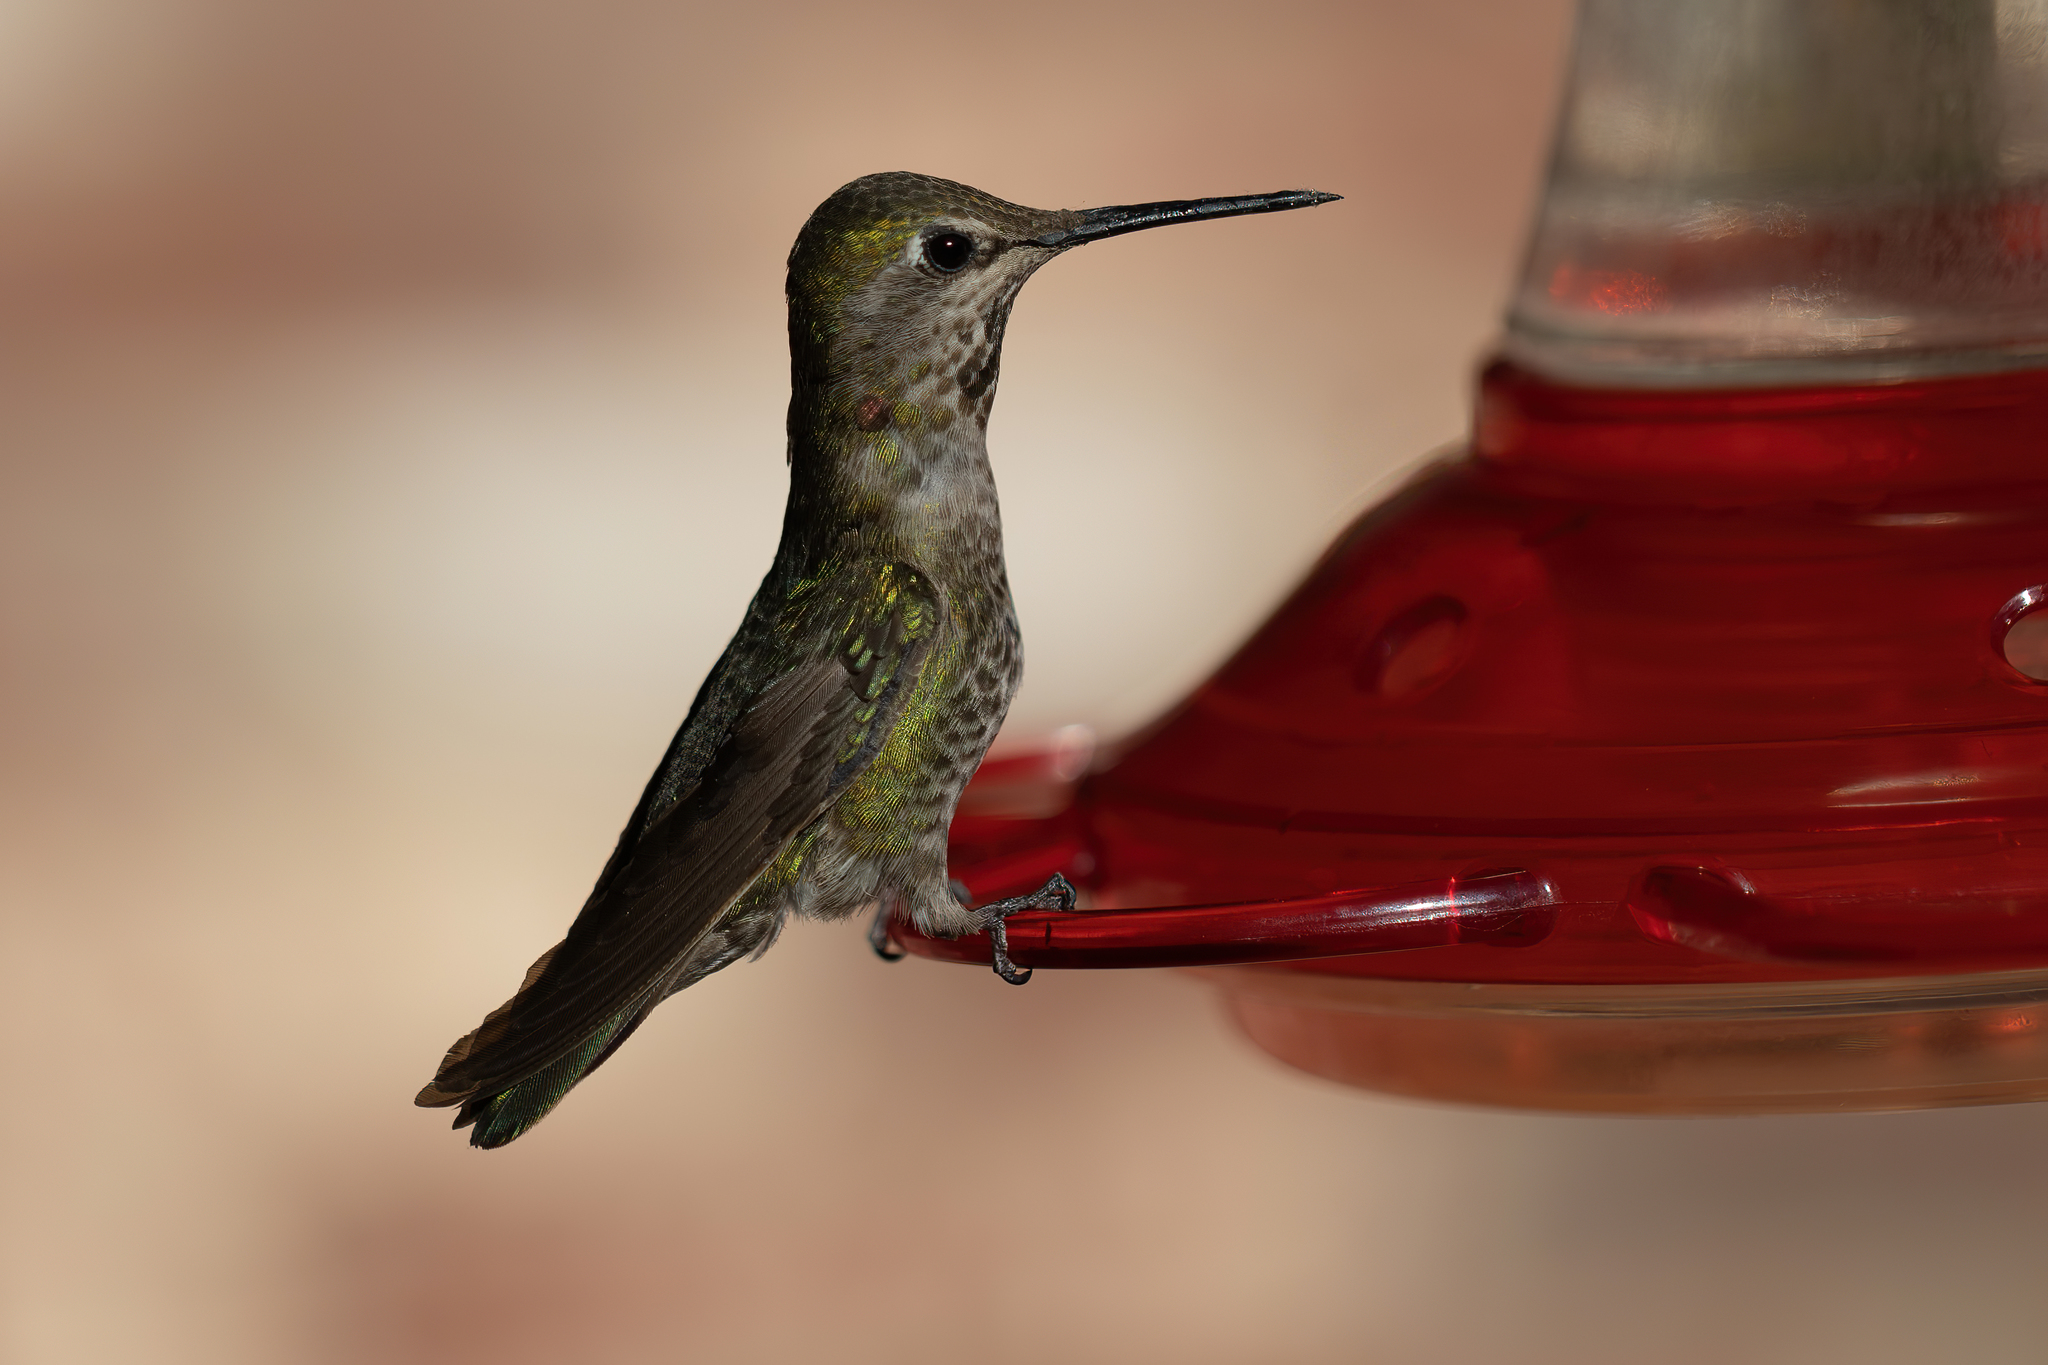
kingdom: Animalia
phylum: Chordata
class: Aves
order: Apodiformes
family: Trochilidae
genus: Calypte
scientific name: Calypte anna
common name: Anna's hummingbird
